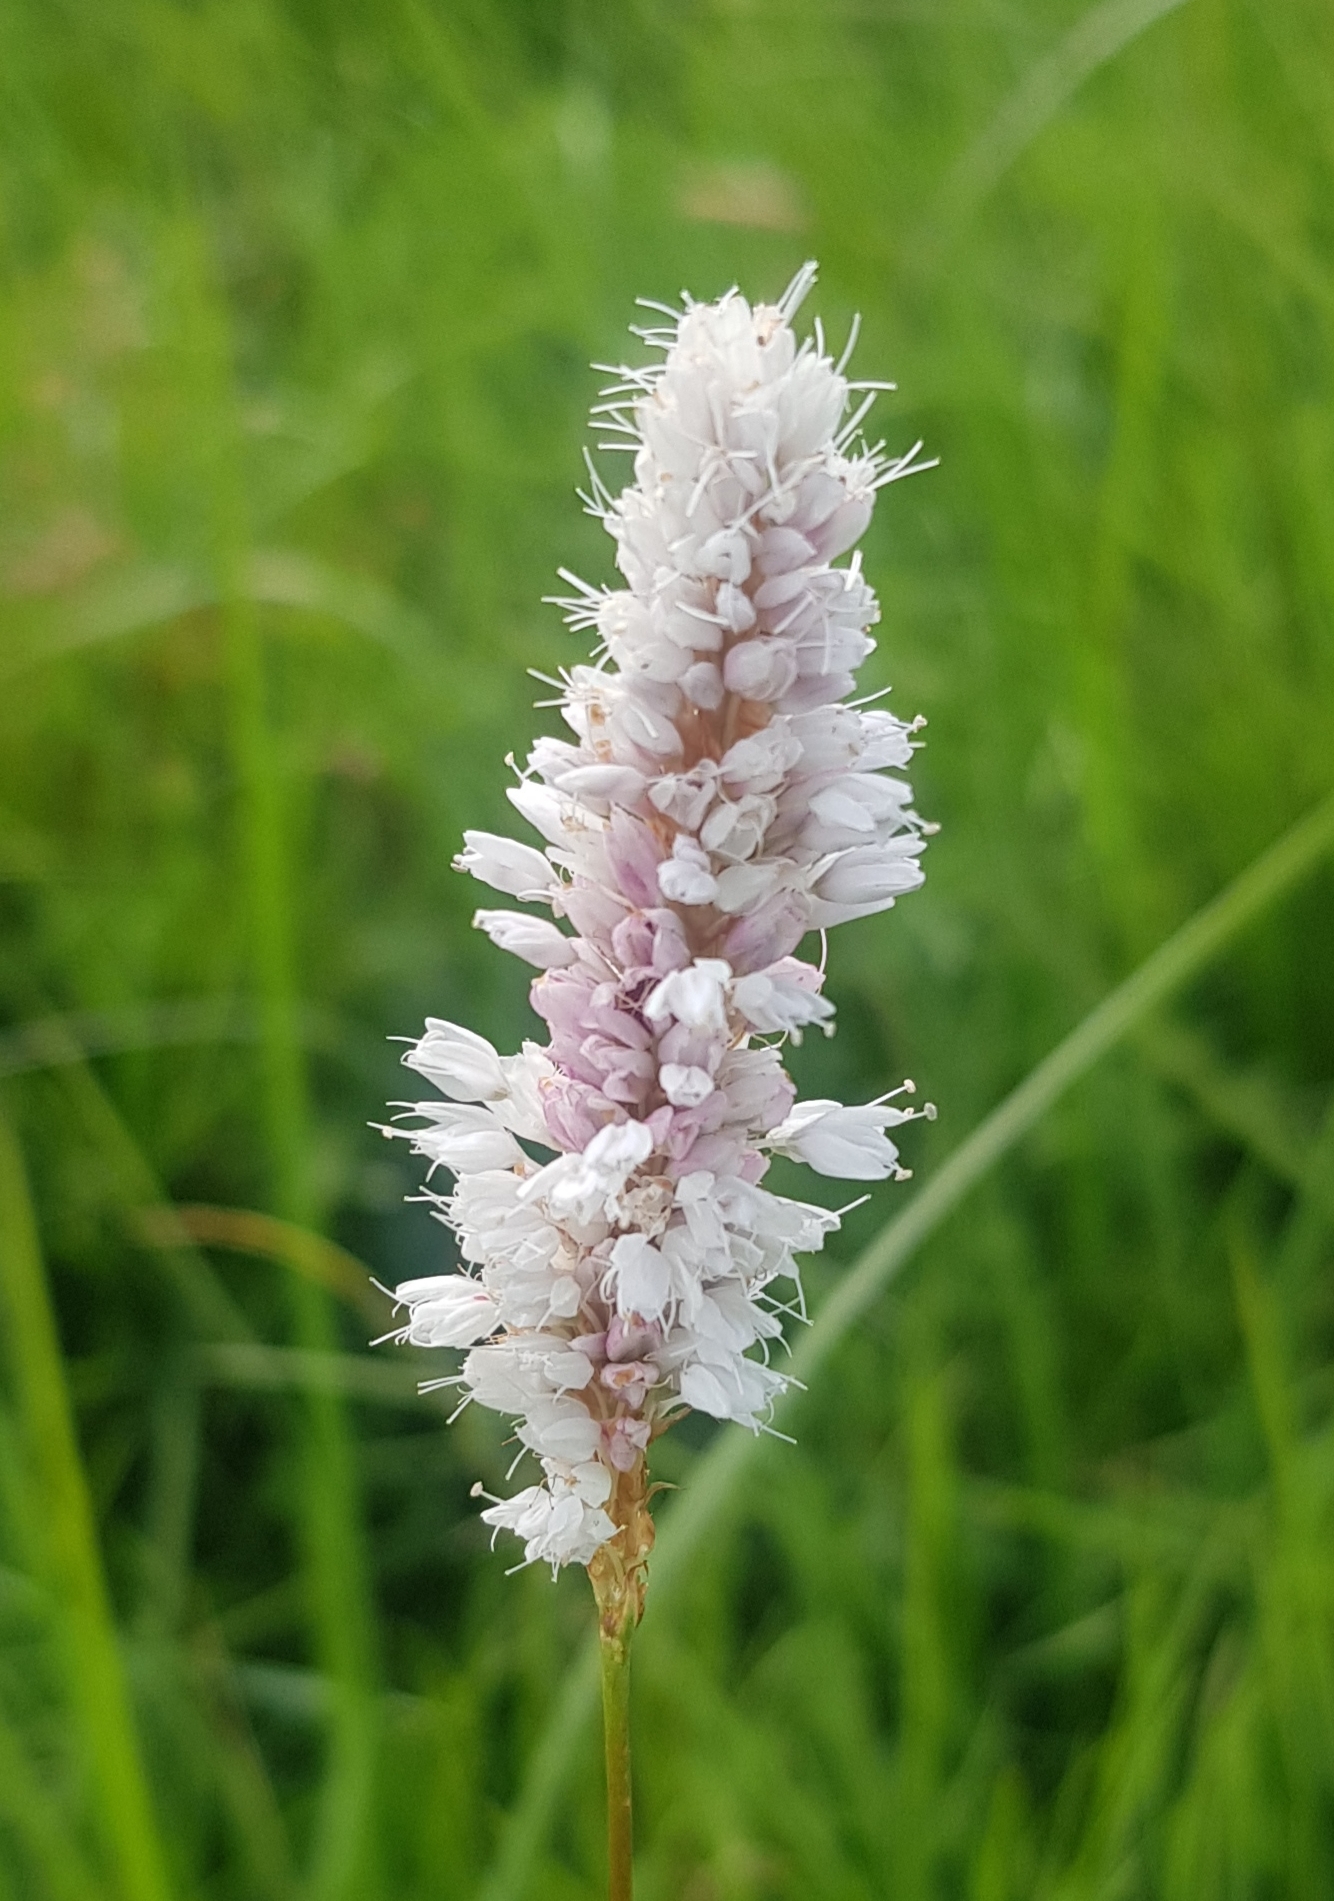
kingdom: Plantae
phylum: Tracheophyta
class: Magnoliopsida
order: Caryophyllales
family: Polygonaceae
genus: Bistorta
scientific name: Bistorta vivipara
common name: Alpine bistort
